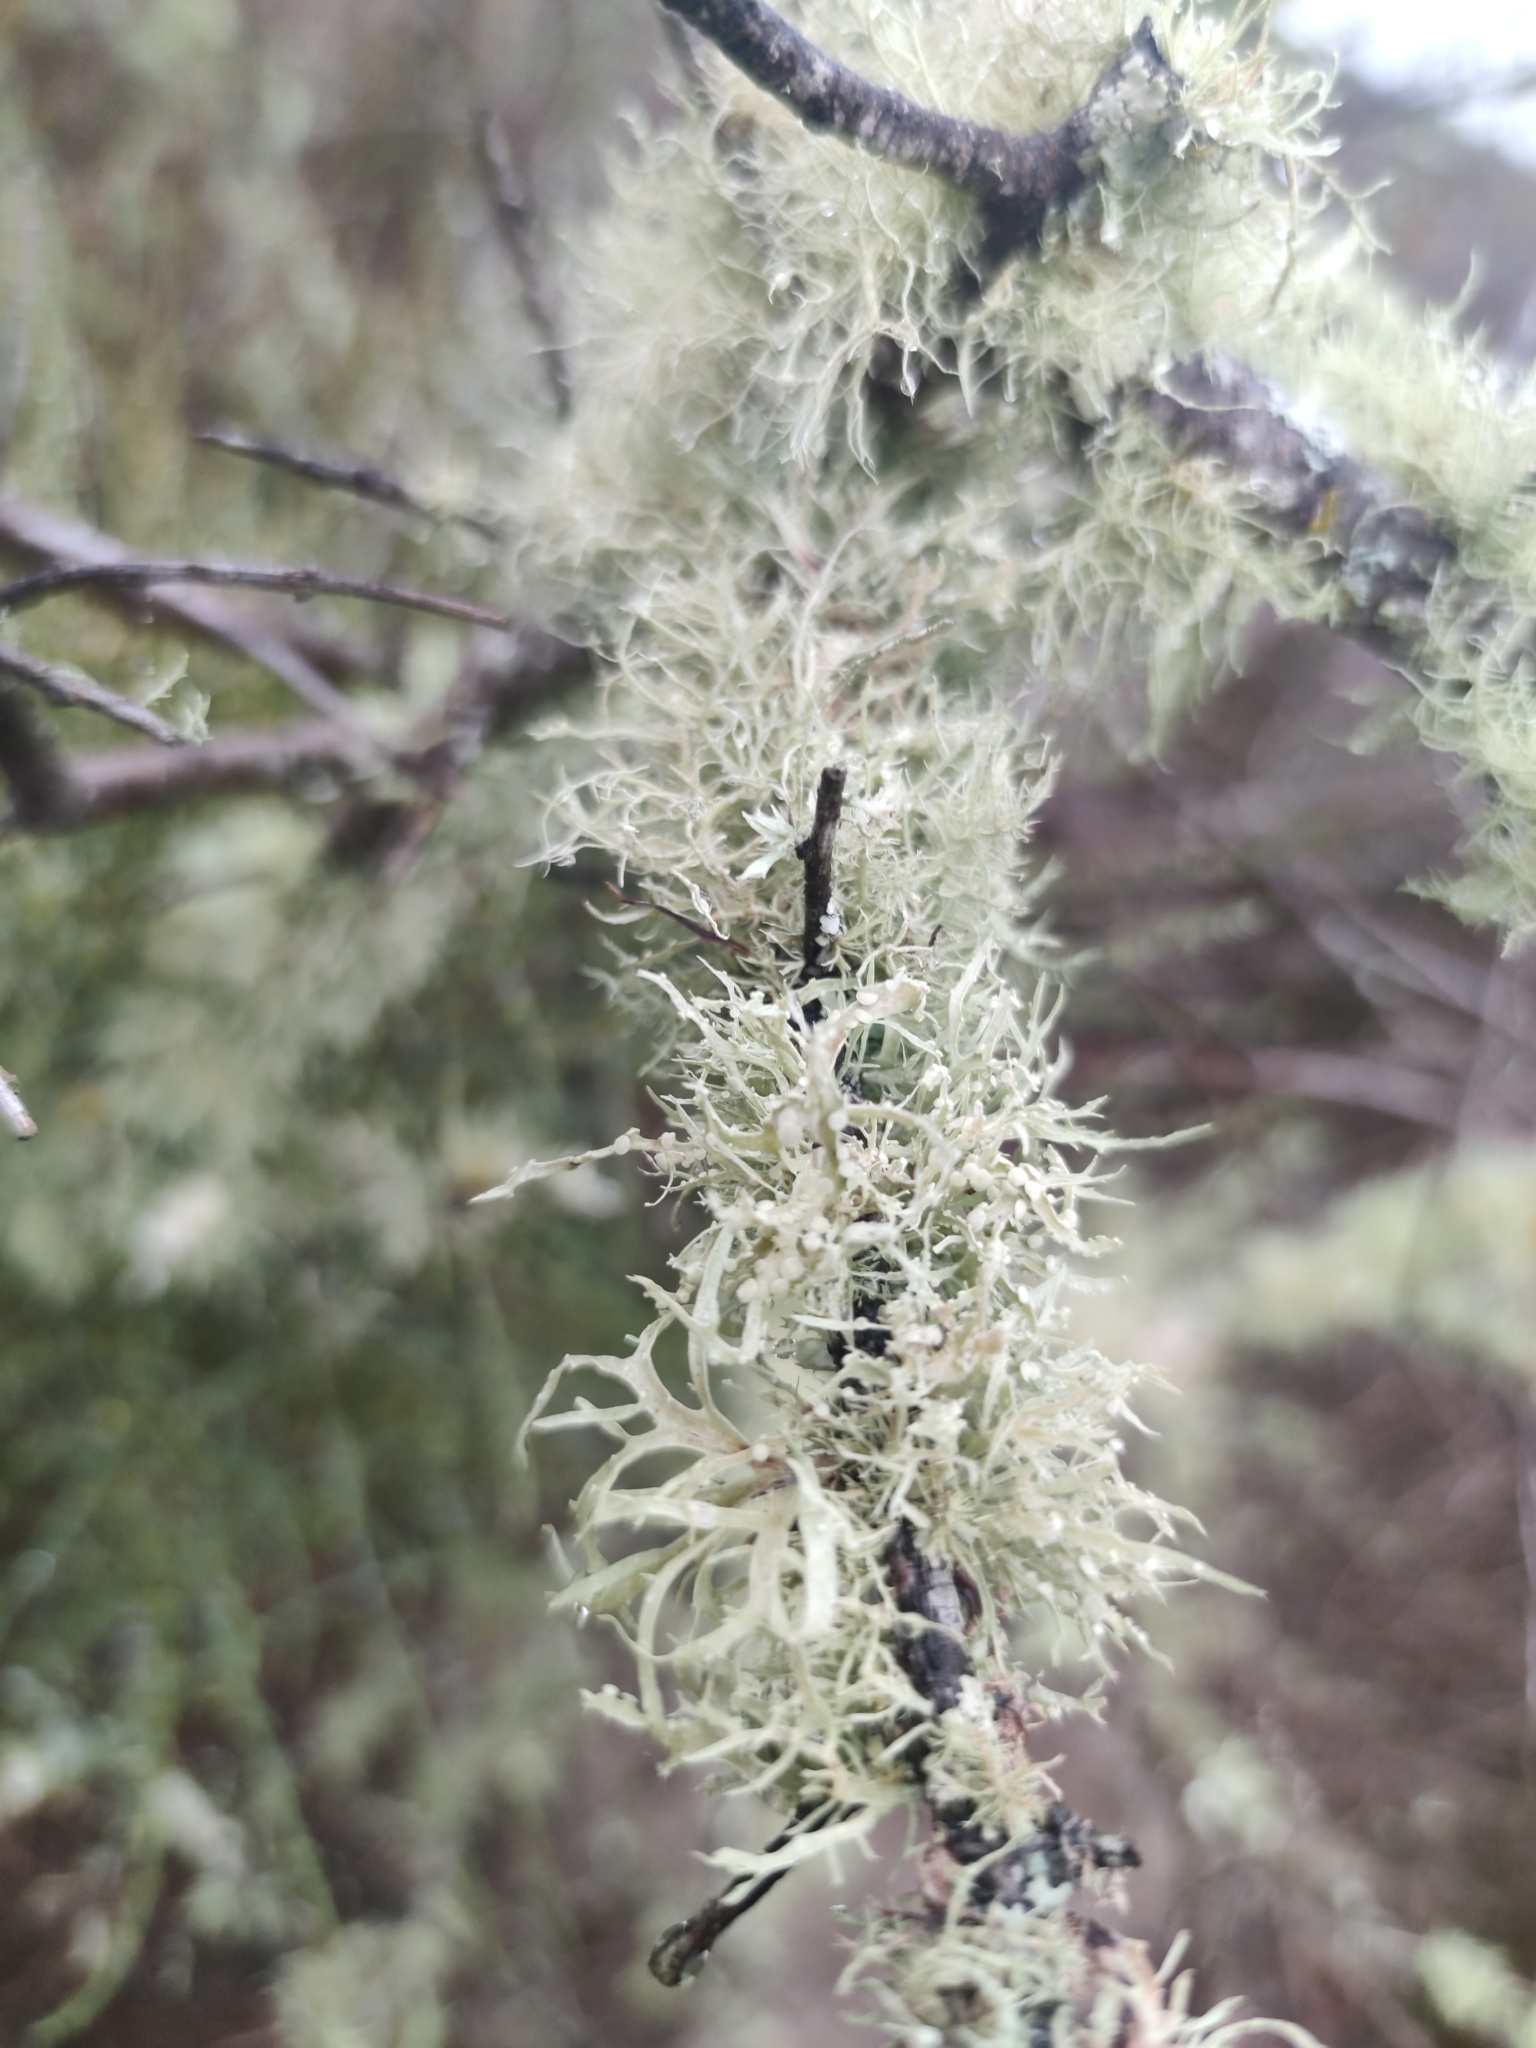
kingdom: Fungi
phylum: Ascomycota
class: Lecanoromycetes
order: Lecanorales
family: Ramalinaceae
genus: Ramalina
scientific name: Ramalina celastri
